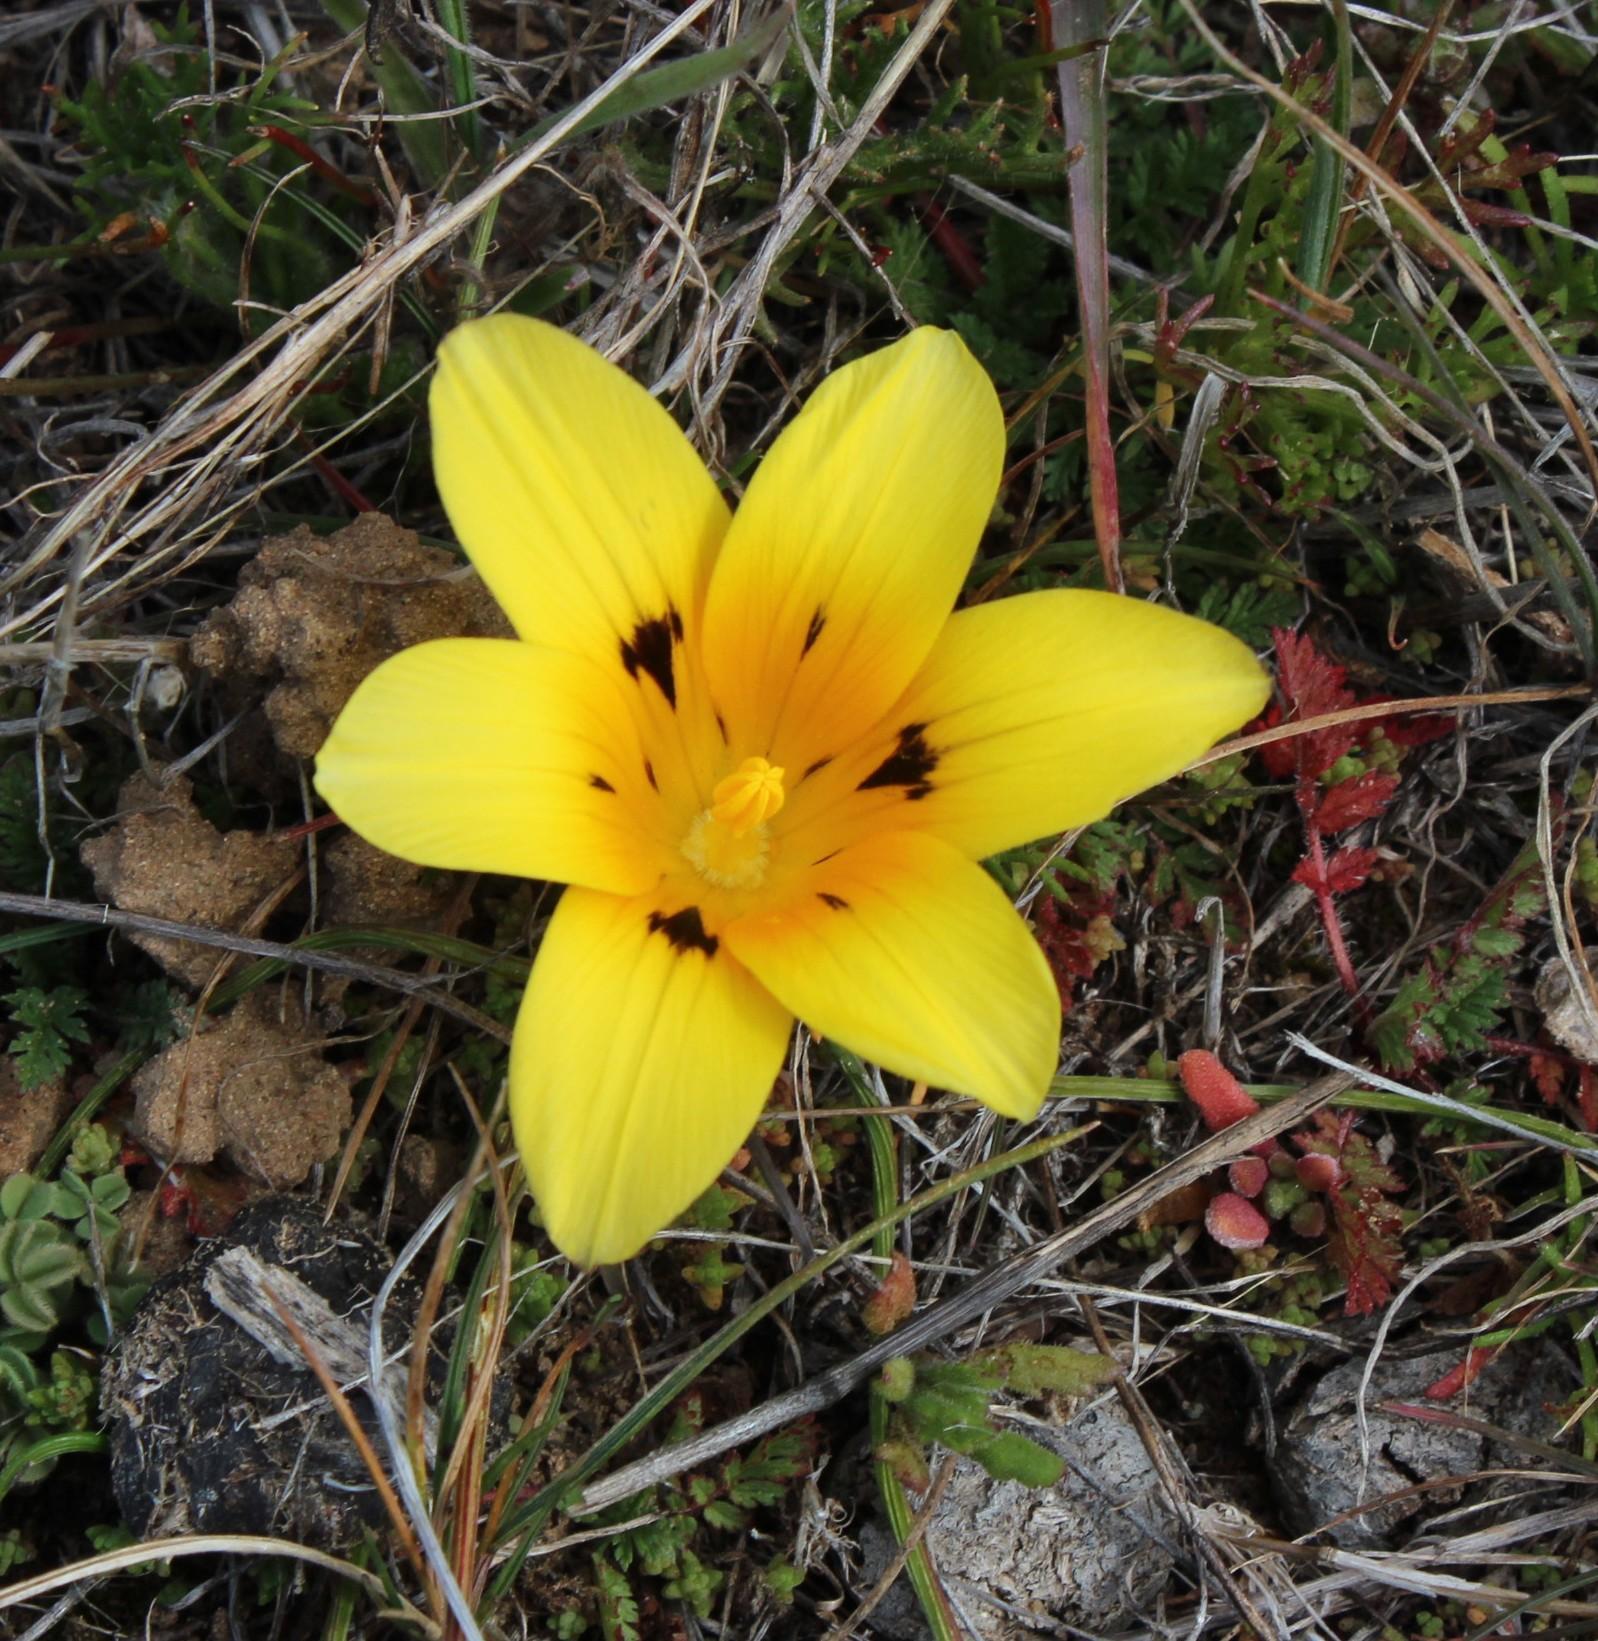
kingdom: Plantae
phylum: Tracheophyta
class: Liliopsida
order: Asparagales
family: Iridaceae
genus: Romulea
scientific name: Romulea tortuosa
